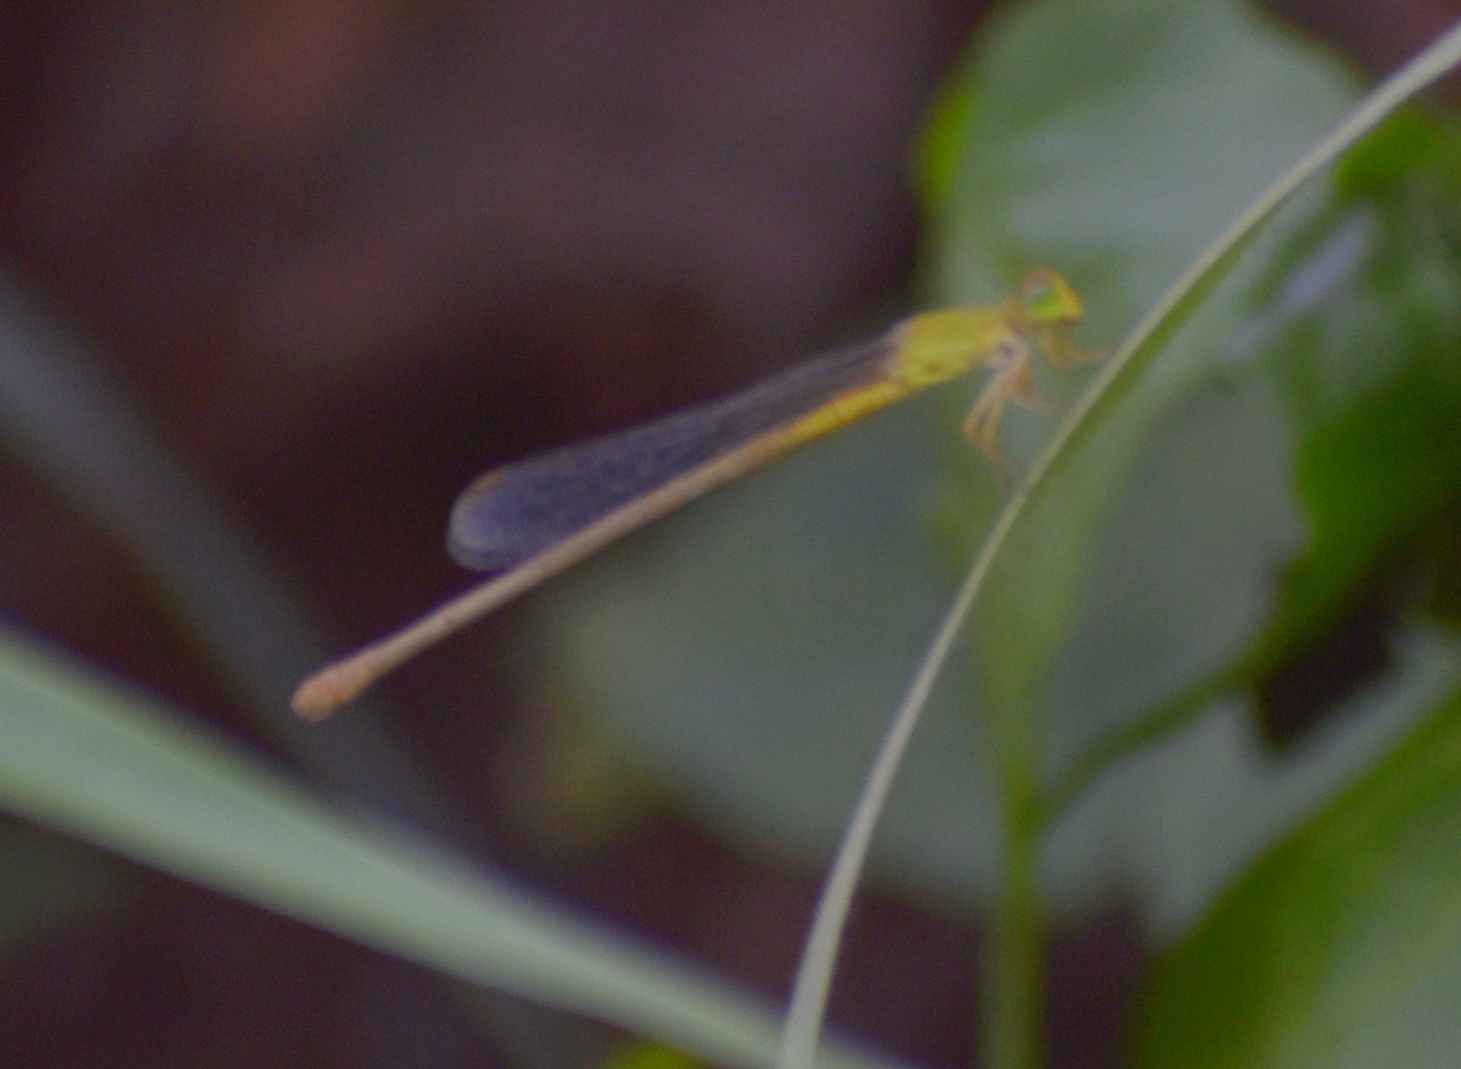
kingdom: Animalia
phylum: Arthropoda
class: Insecta
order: Odonata
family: Coenagrionidae
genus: Ceriagrion
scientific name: Ceriagrion coromandelianum
